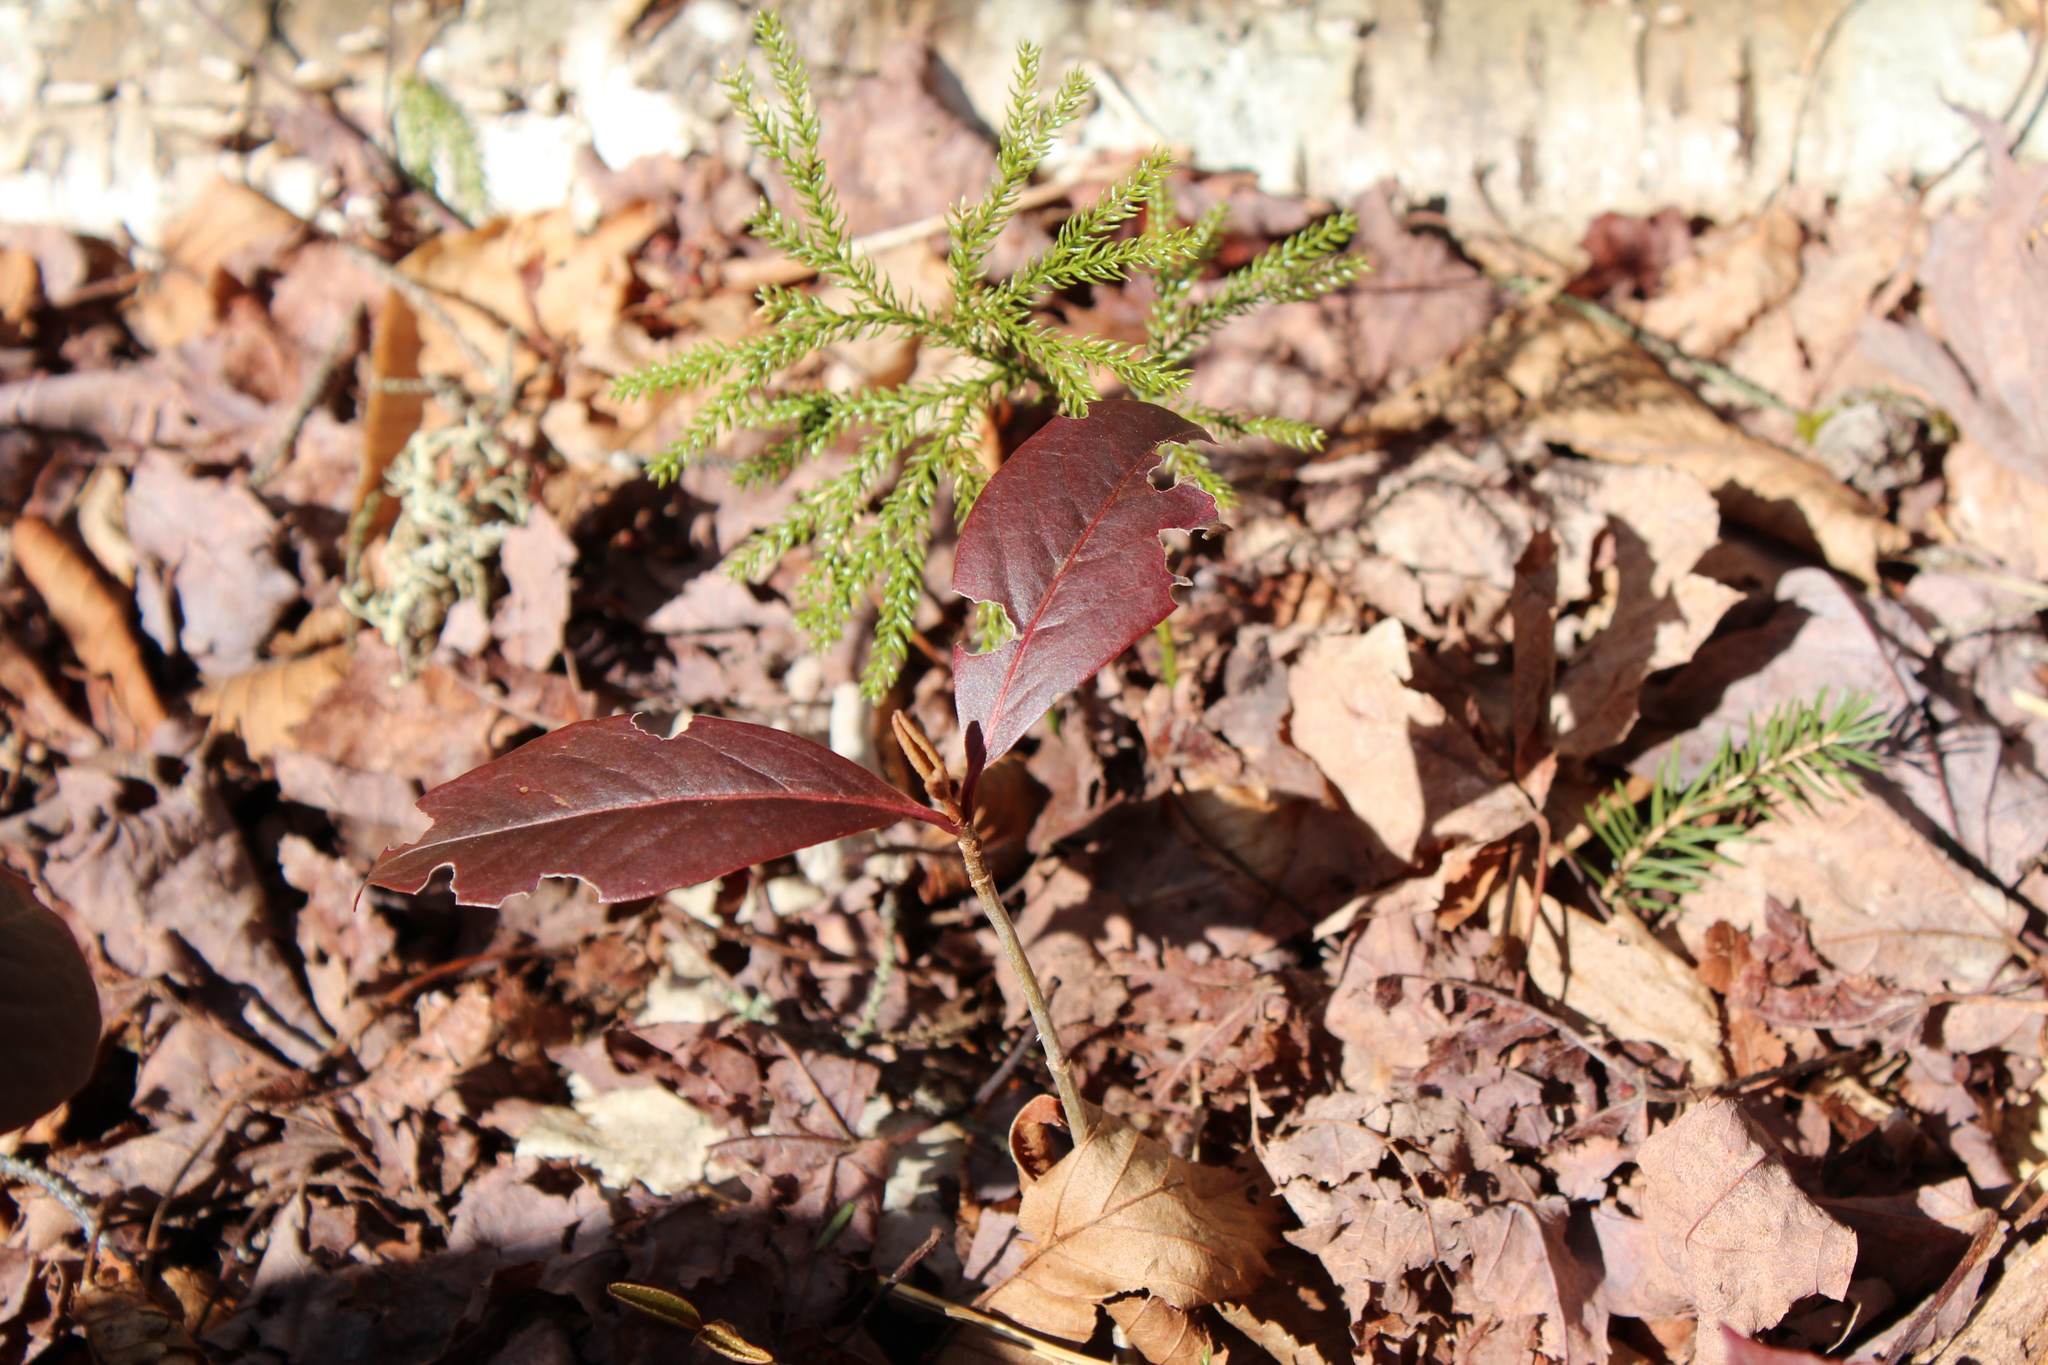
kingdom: Plantae
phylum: Tracheophyta
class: Magnoliopsida
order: Dipsacales
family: Viburnaceae
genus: Viburnum
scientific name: Viburnum cassinoides
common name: Swamp haw
